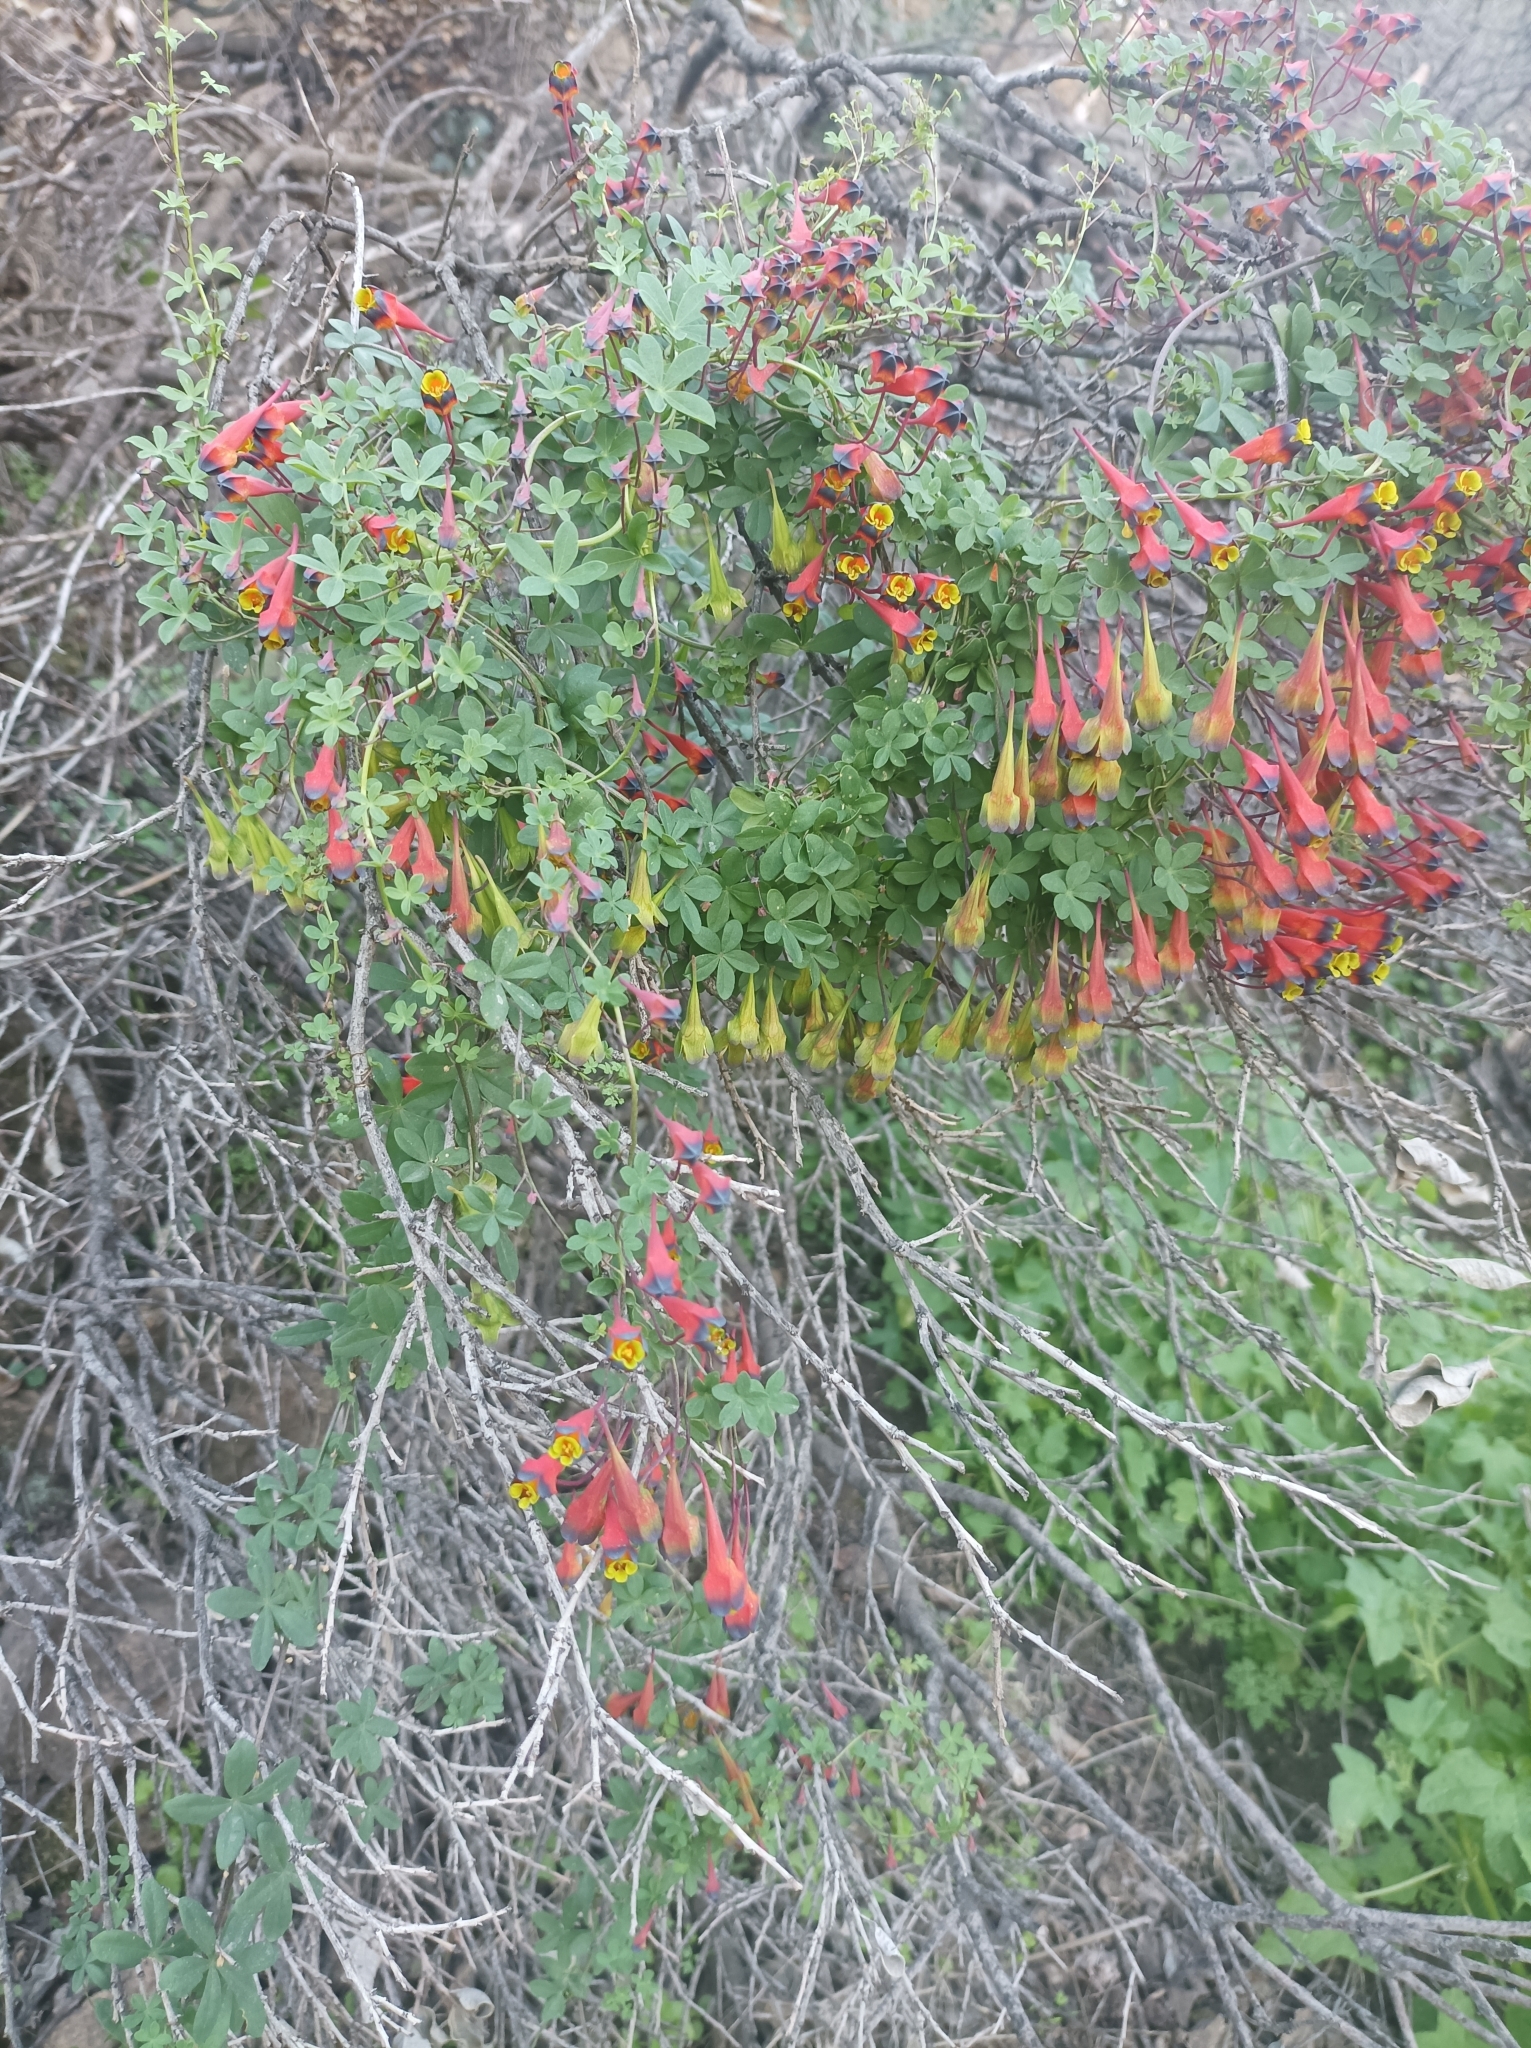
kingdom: Plantae
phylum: Tracheophyta
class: Magnoliopsida
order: Brassicales
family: Tropaeolaceae
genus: Tropaeolum
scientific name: Tropaeolum tricolor
